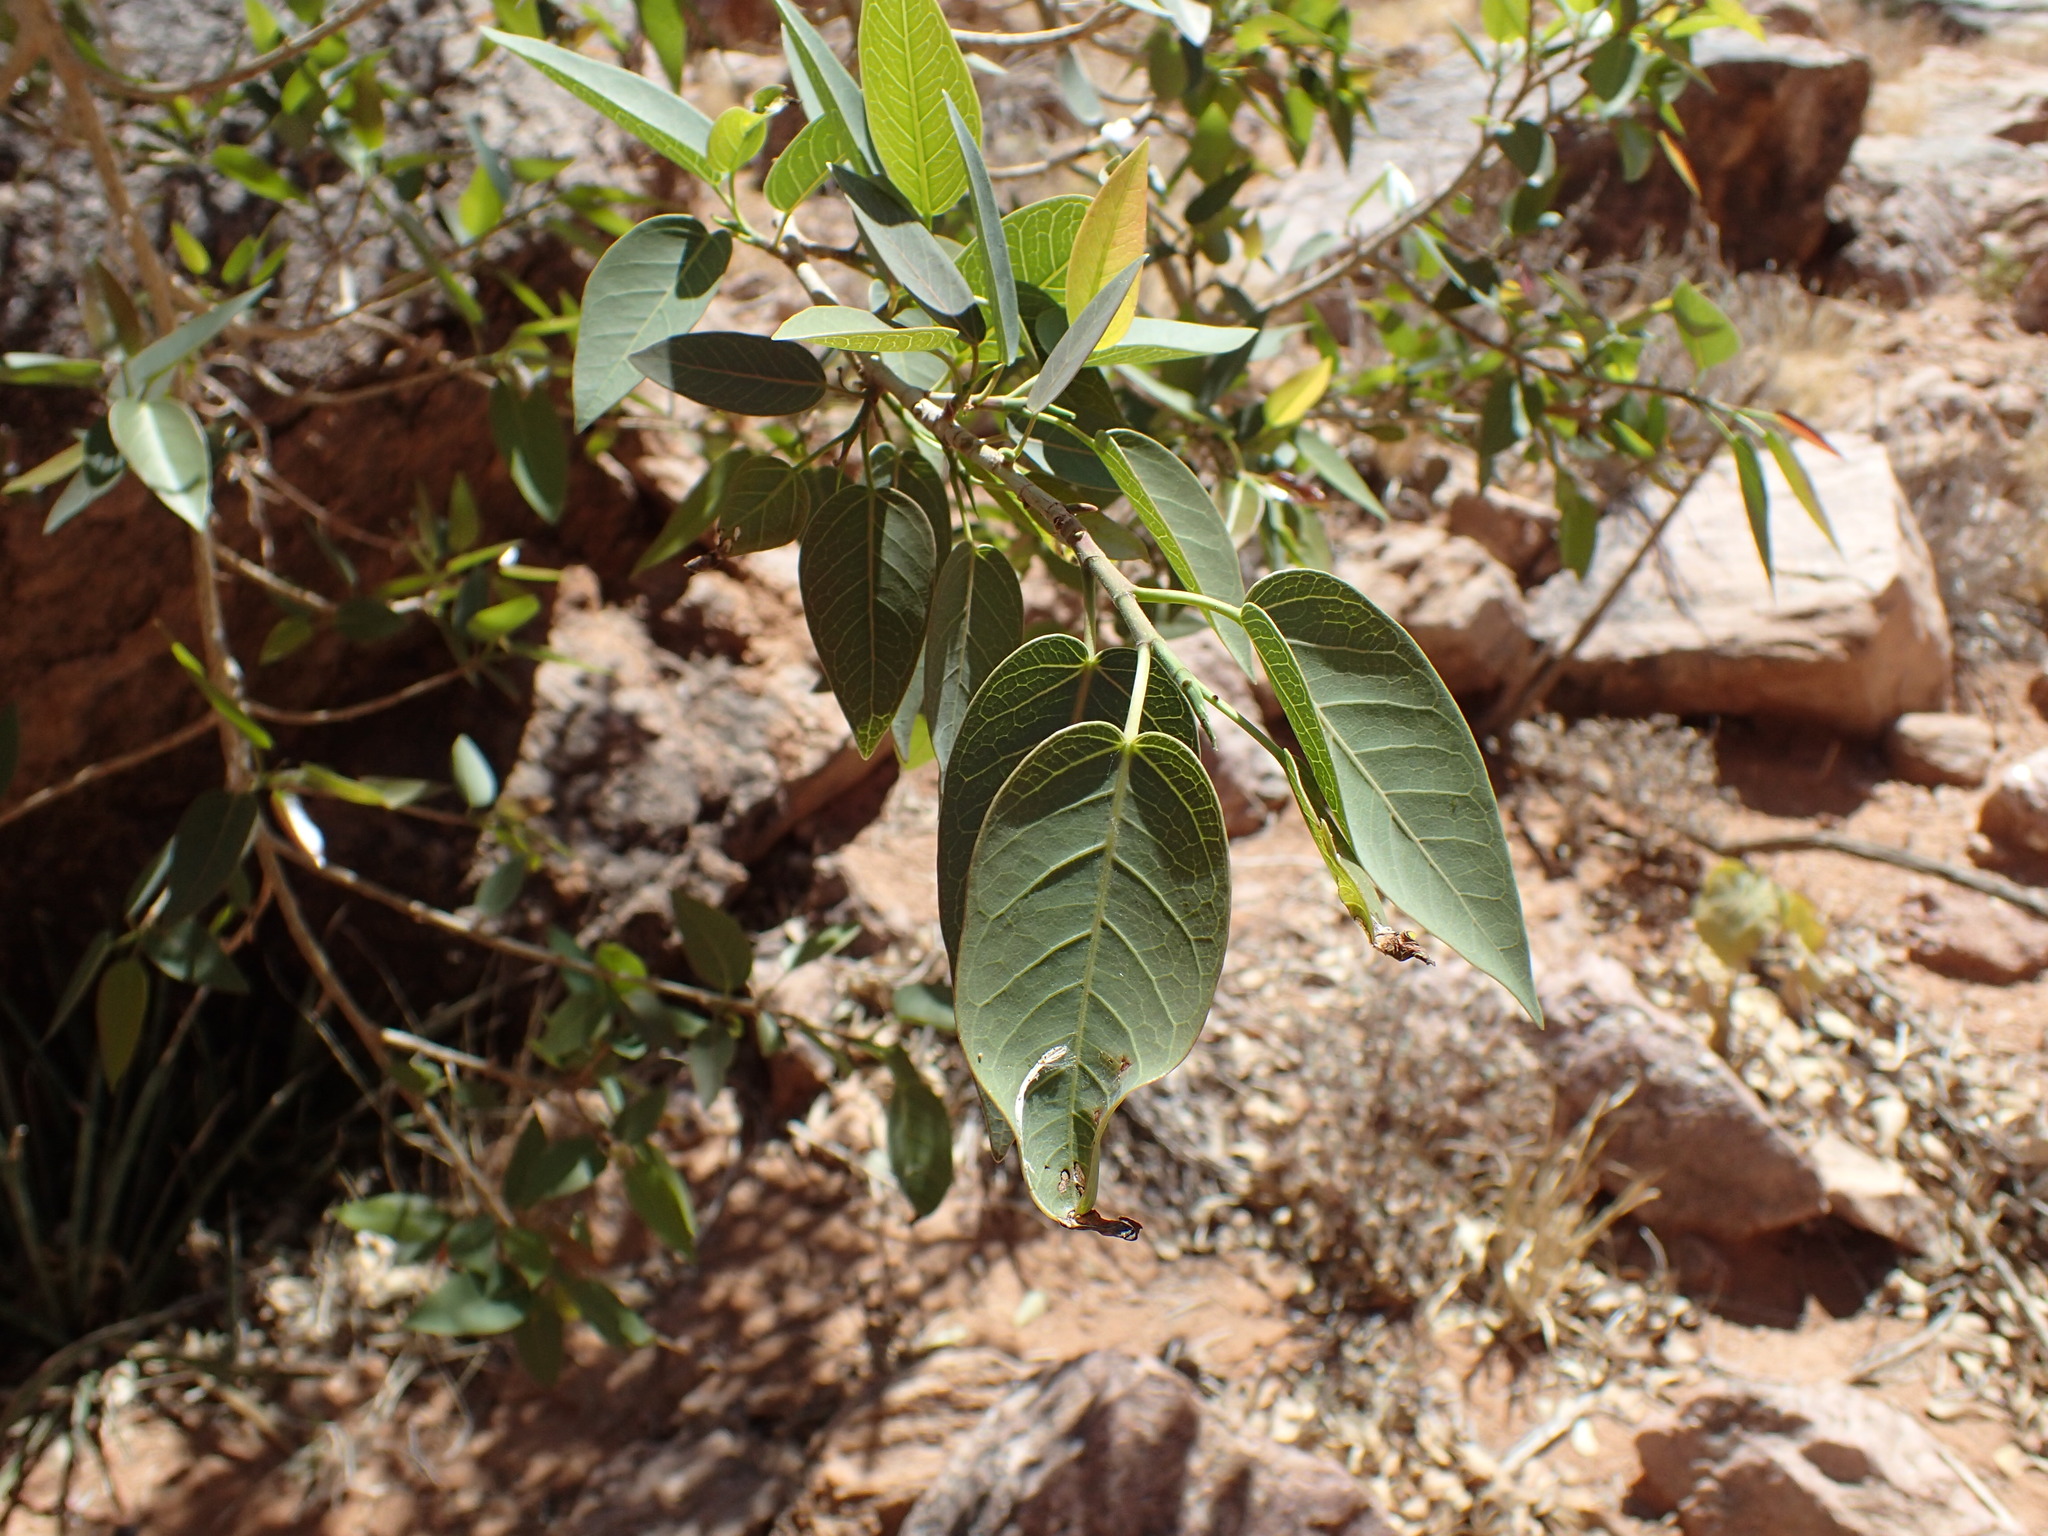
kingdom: Plantae
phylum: Tracheophyta
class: Magnoliopsida
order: Rosales
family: Moraceae
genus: Ficus
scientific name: Ficus cordata
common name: Namaqua rock fig
